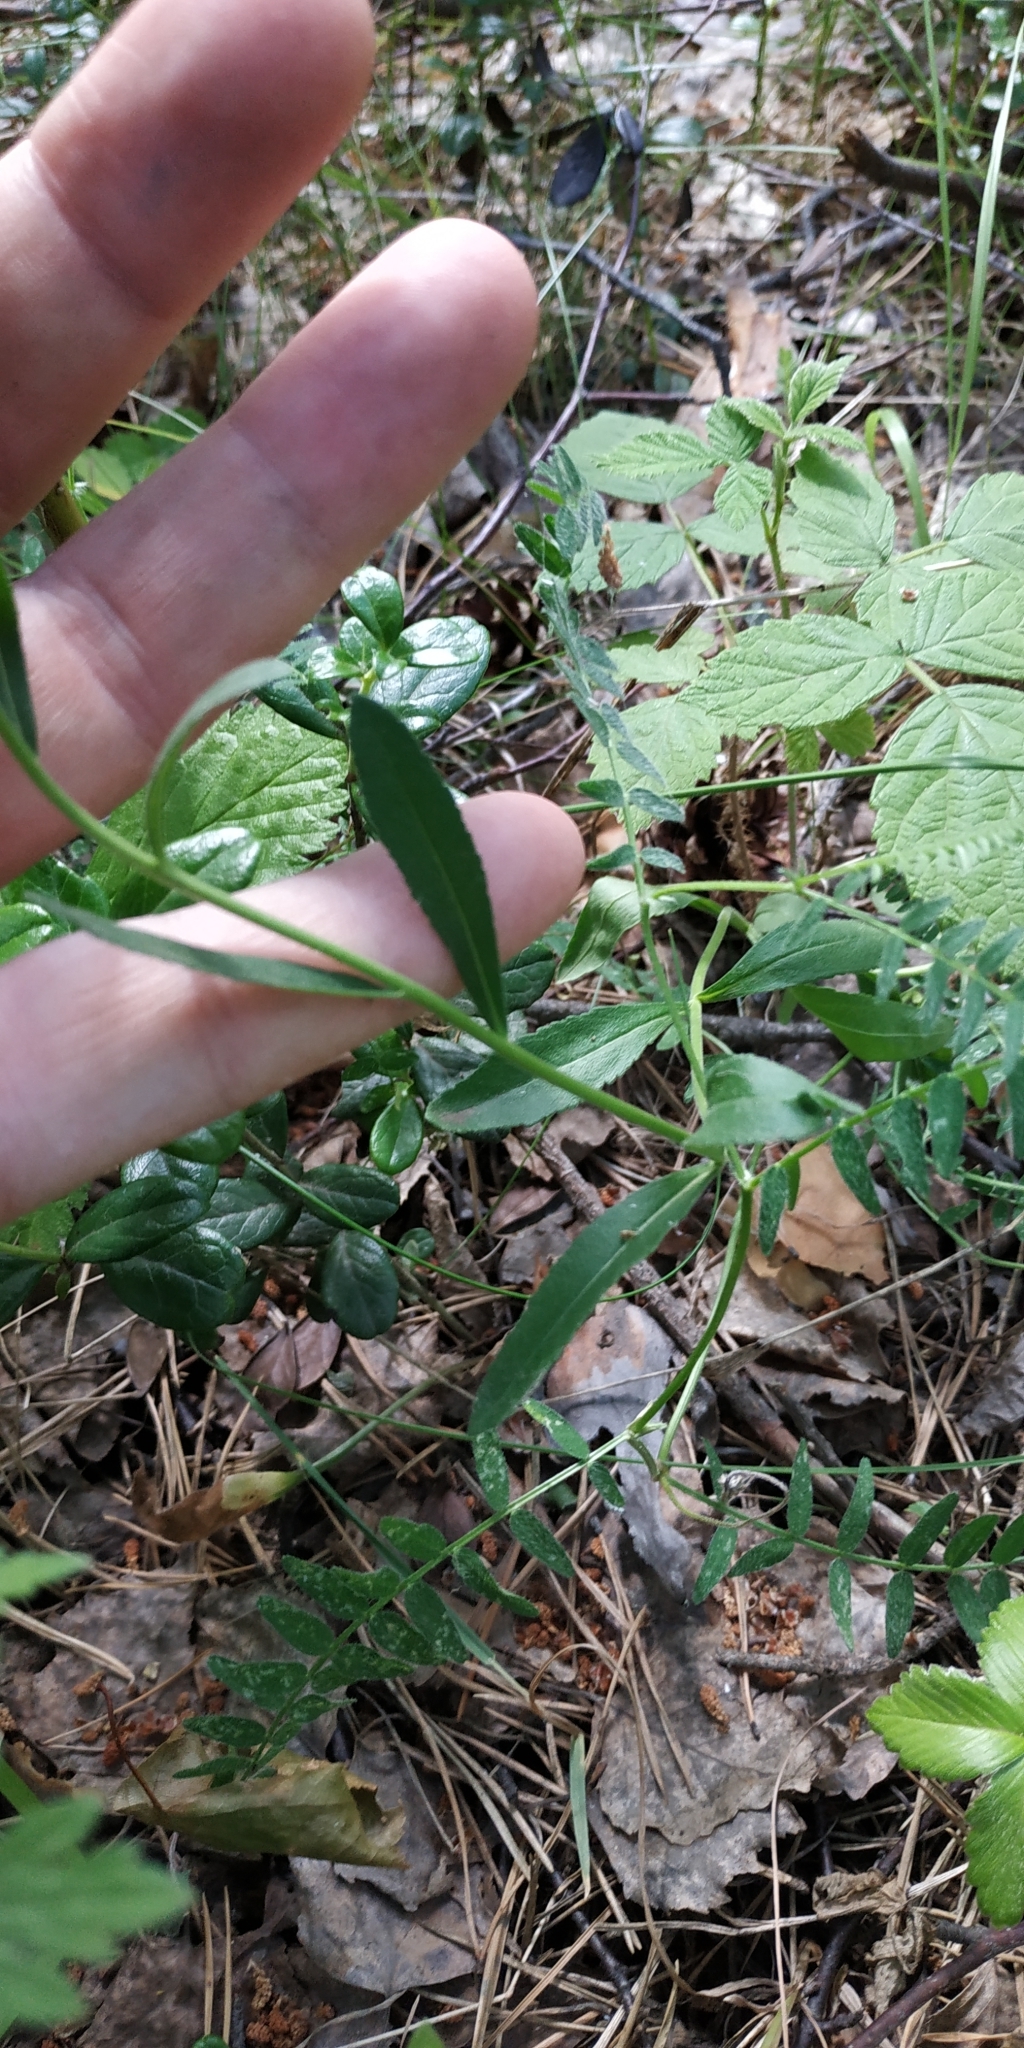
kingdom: Plantae
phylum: Tracheophyta
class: Magnoliopsida
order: Lamiales
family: Plantaginaceae
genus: Veronica
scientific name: Veronica spicata
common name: Spiked speedwell
